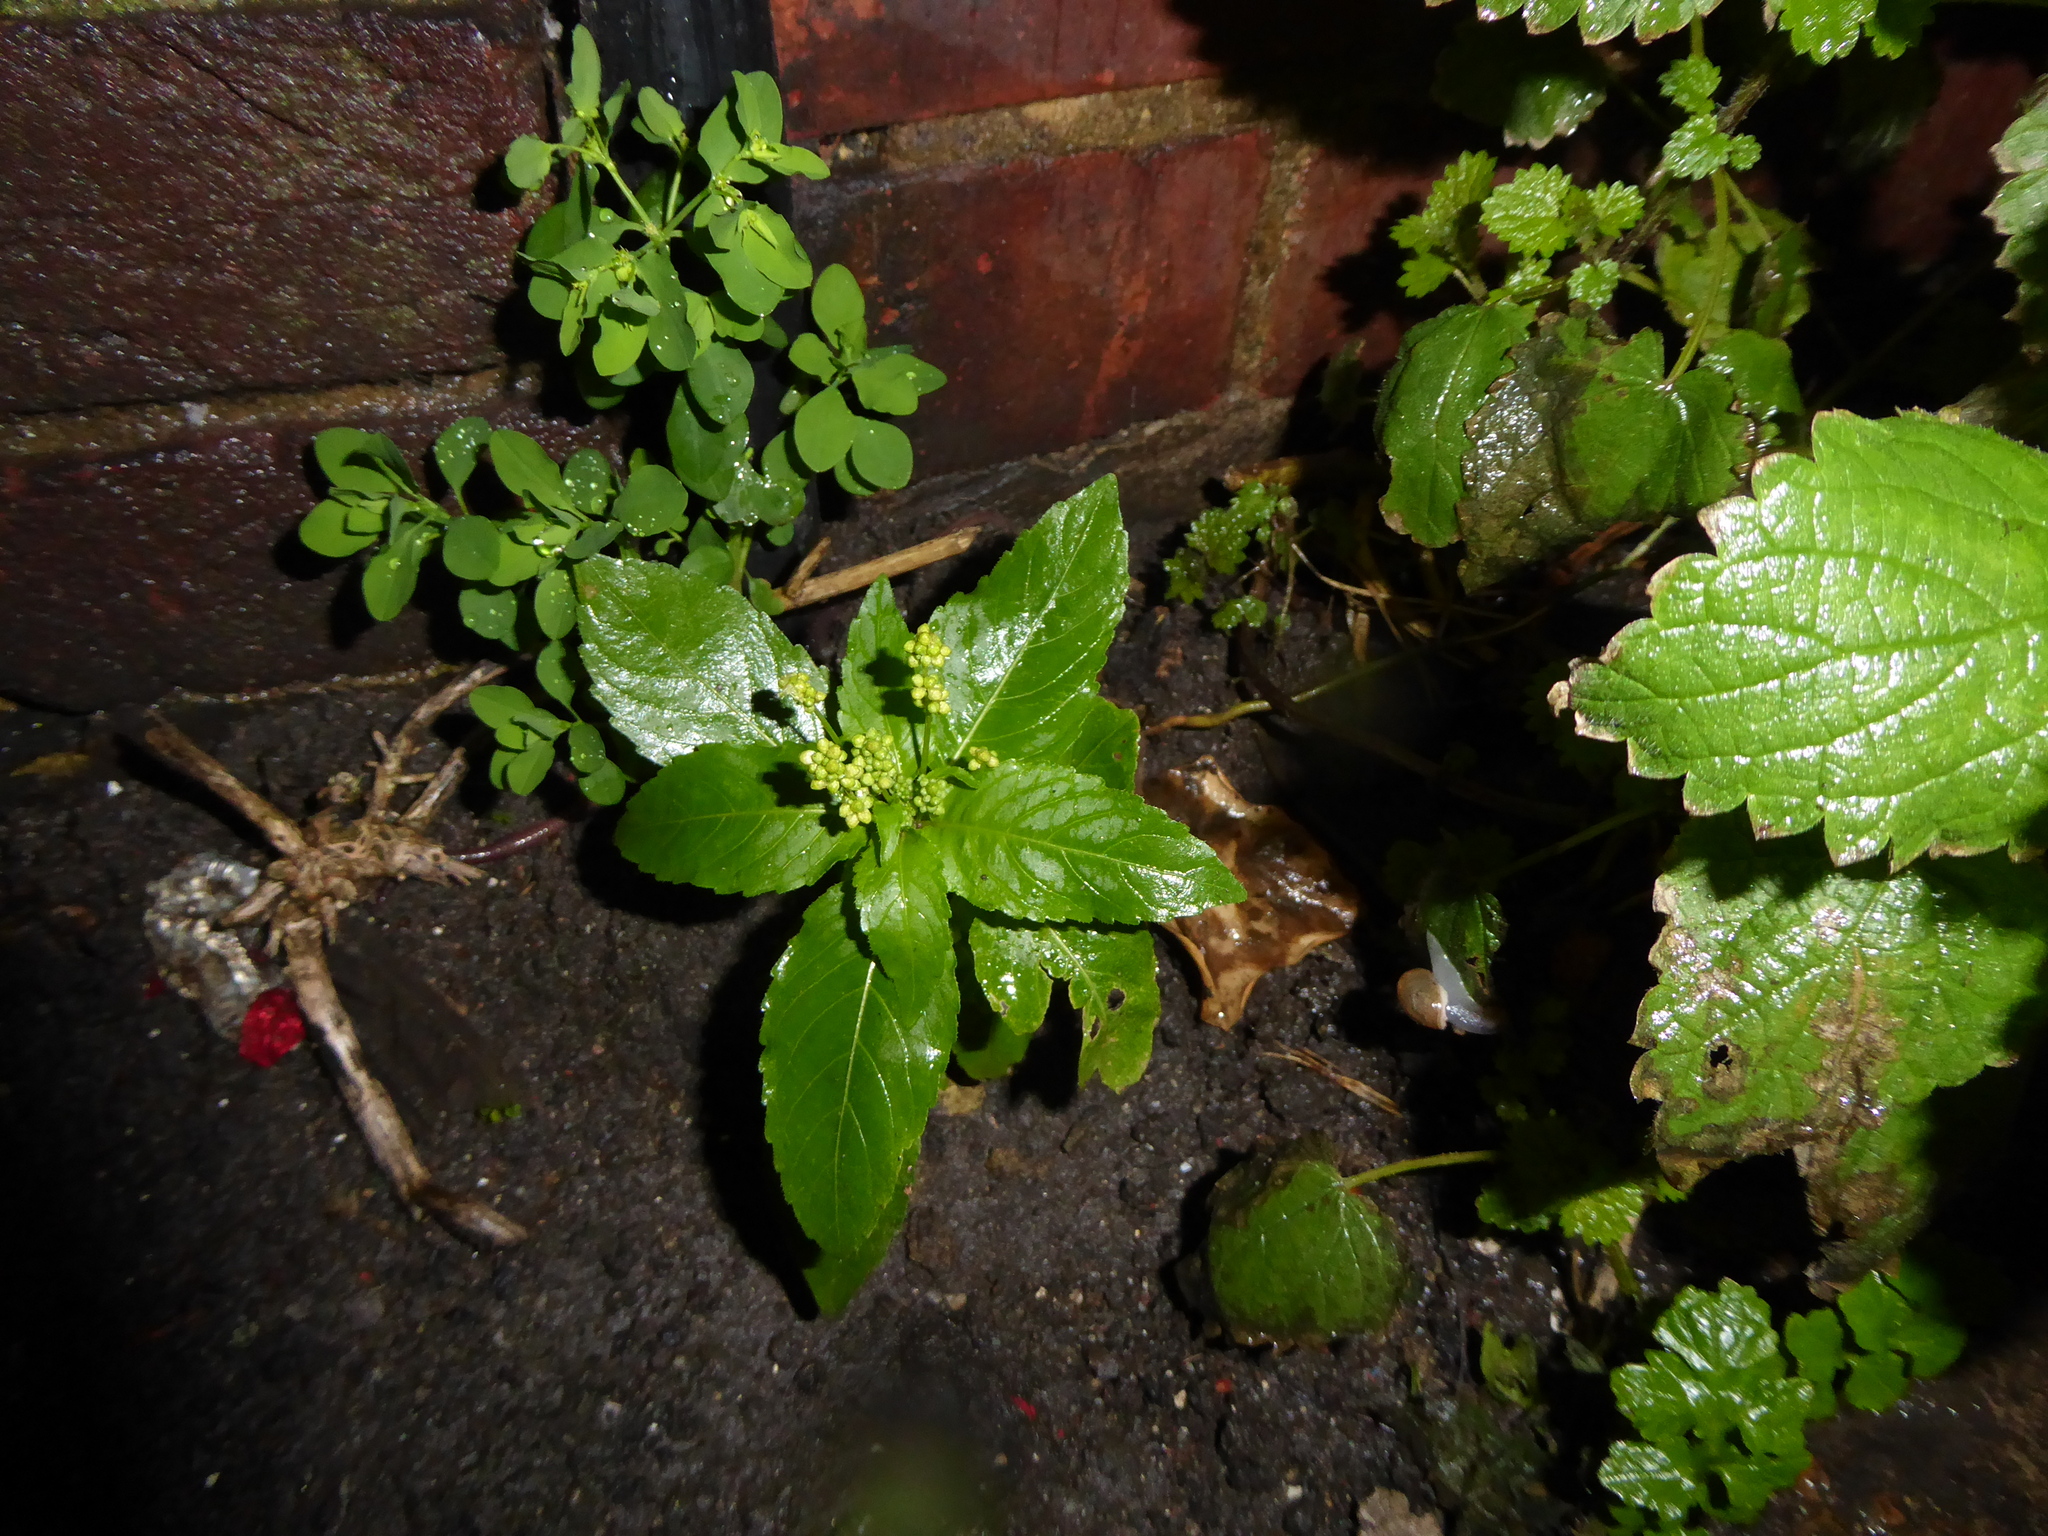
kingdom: Plantae
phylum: Tracheophyta
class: Magnoliopsida
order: Malpighiales
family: Euphorbiaceae
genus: Mercurialis
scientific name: Mercurialis annua
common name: Annual mercury
